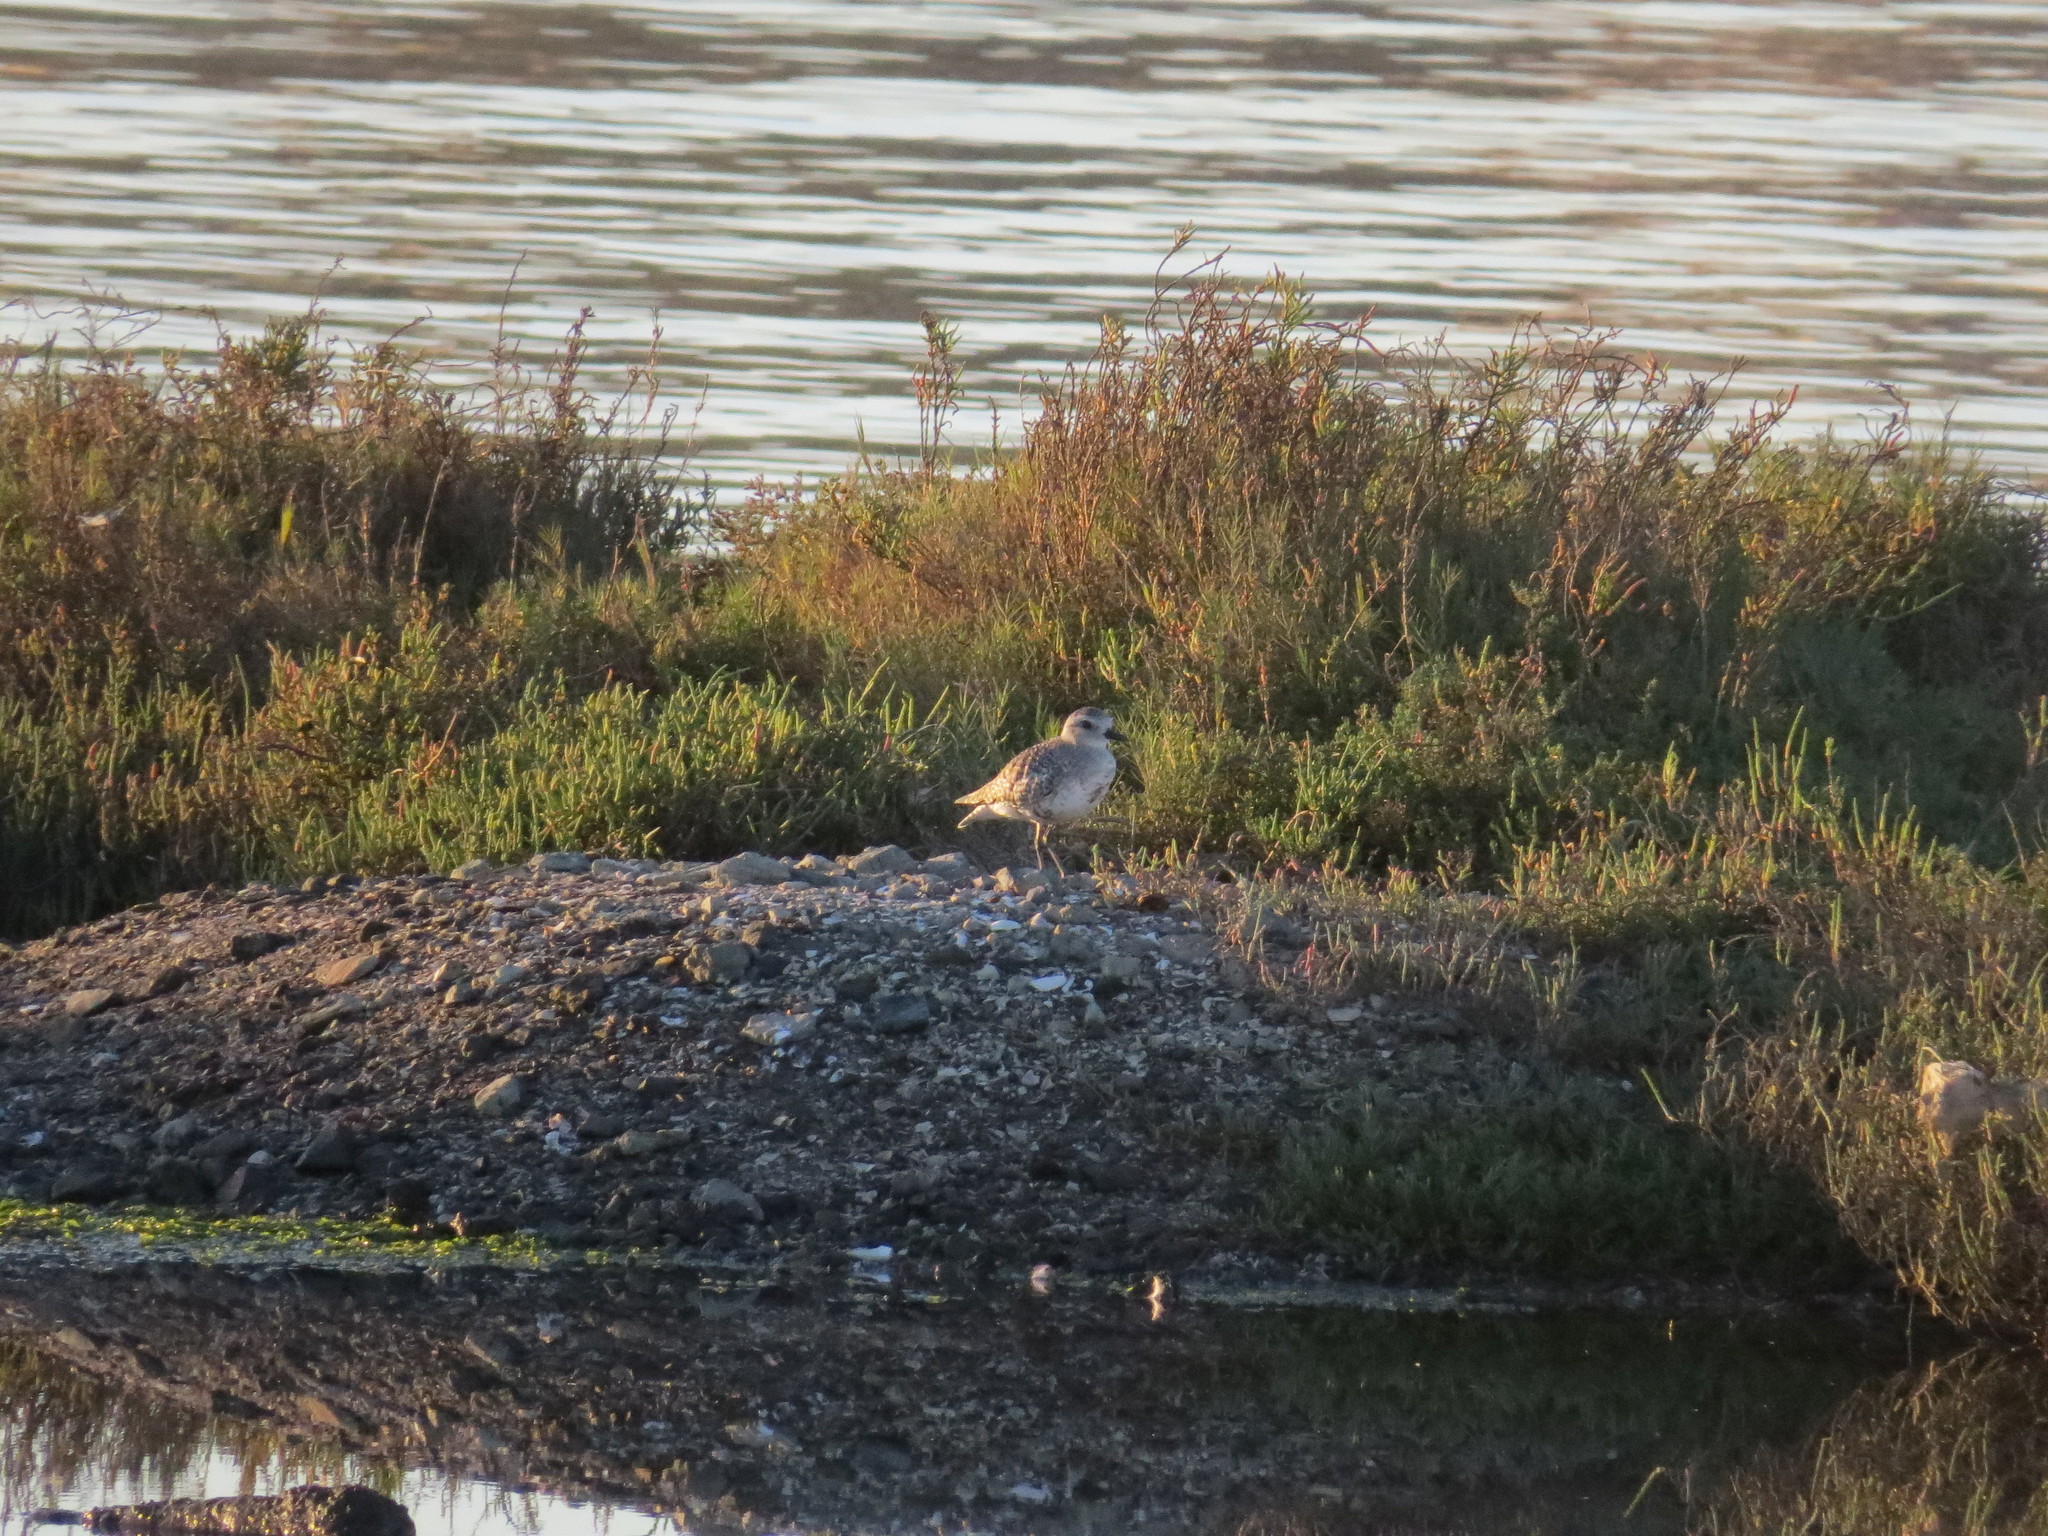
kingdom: Animalia
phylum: Chordata
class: Aves
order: Charadriiformes
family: Charadriidae
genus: Pluvialis
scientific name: Pluvialis squatarola
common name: Grey plover
